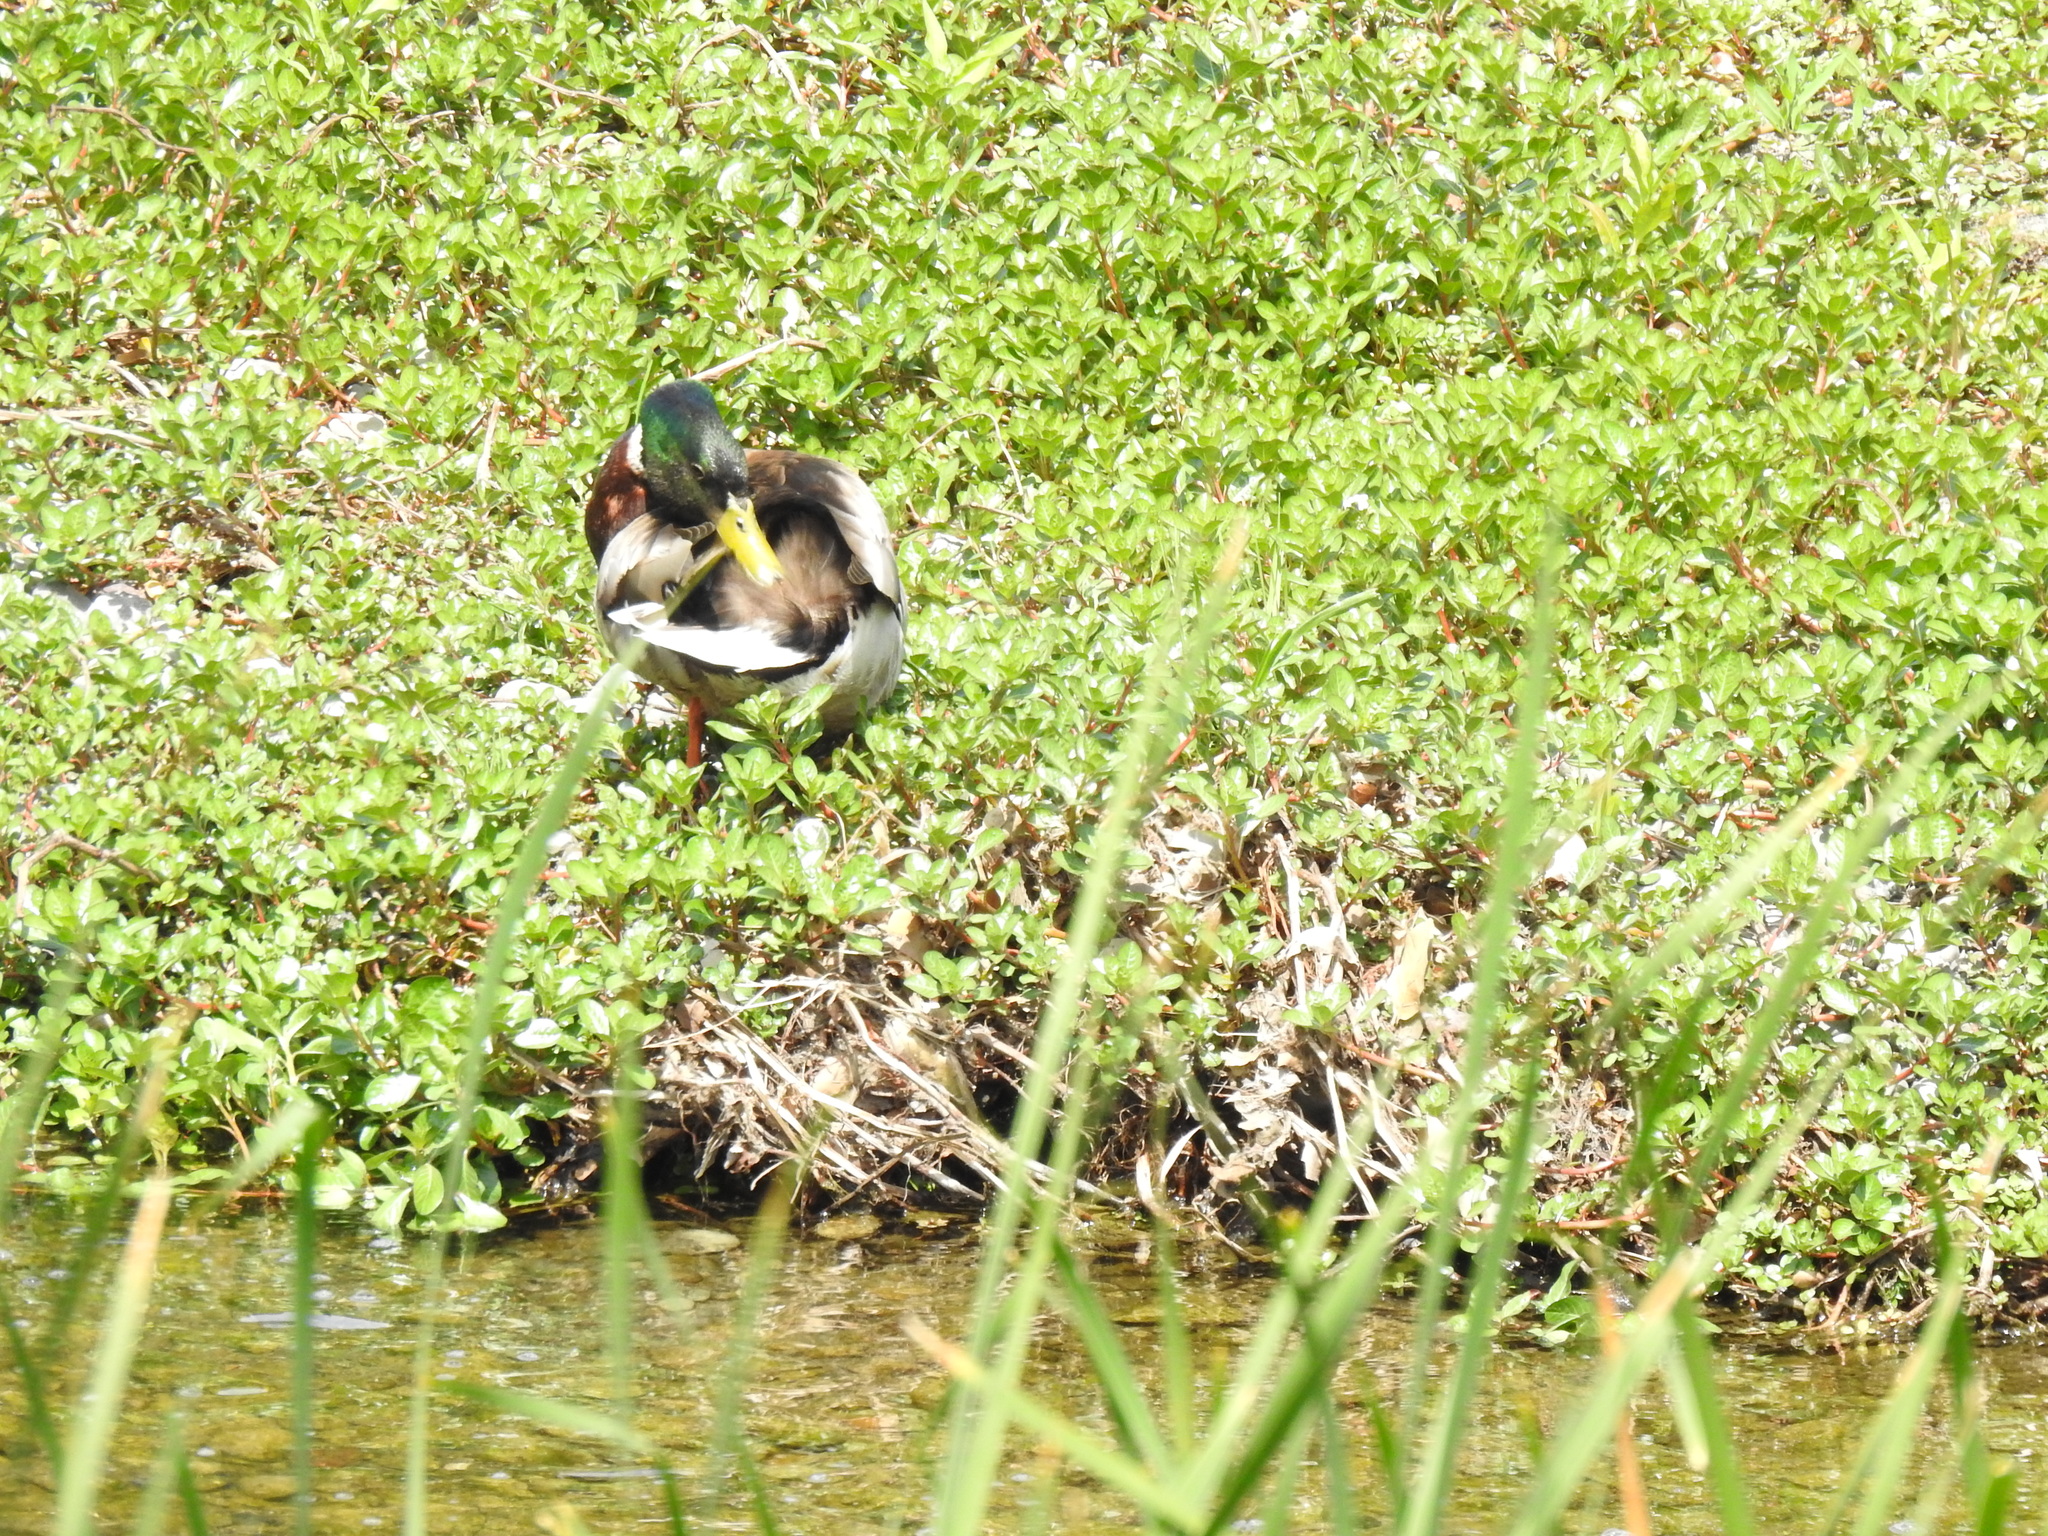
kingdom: Animalia
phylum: Chordata
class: Aves
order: Anseriformes
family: Anatidae
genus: Anas
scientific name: Anas platyrhynchos
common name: Mallard
